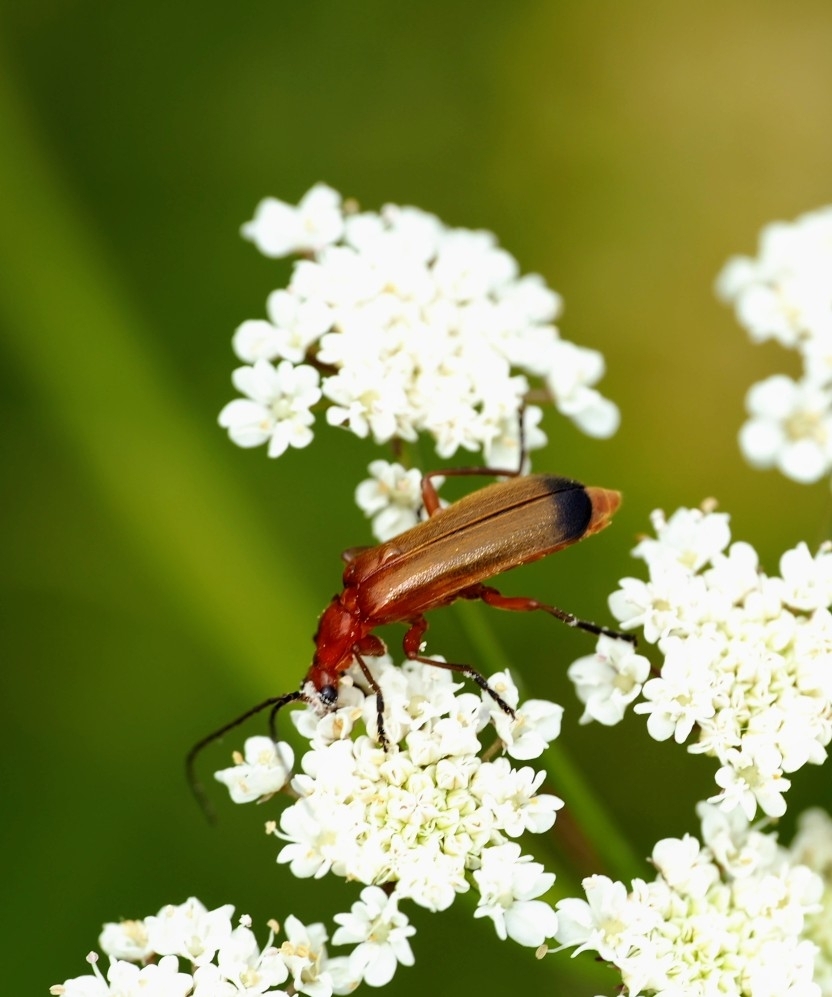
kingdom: Animalia
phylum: Arthropoda
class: Insecta
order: Coleoptera
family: Cantharidae
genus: Rhagonycha
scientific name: Rhagonycha fulva
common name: Common red soldier beetle
